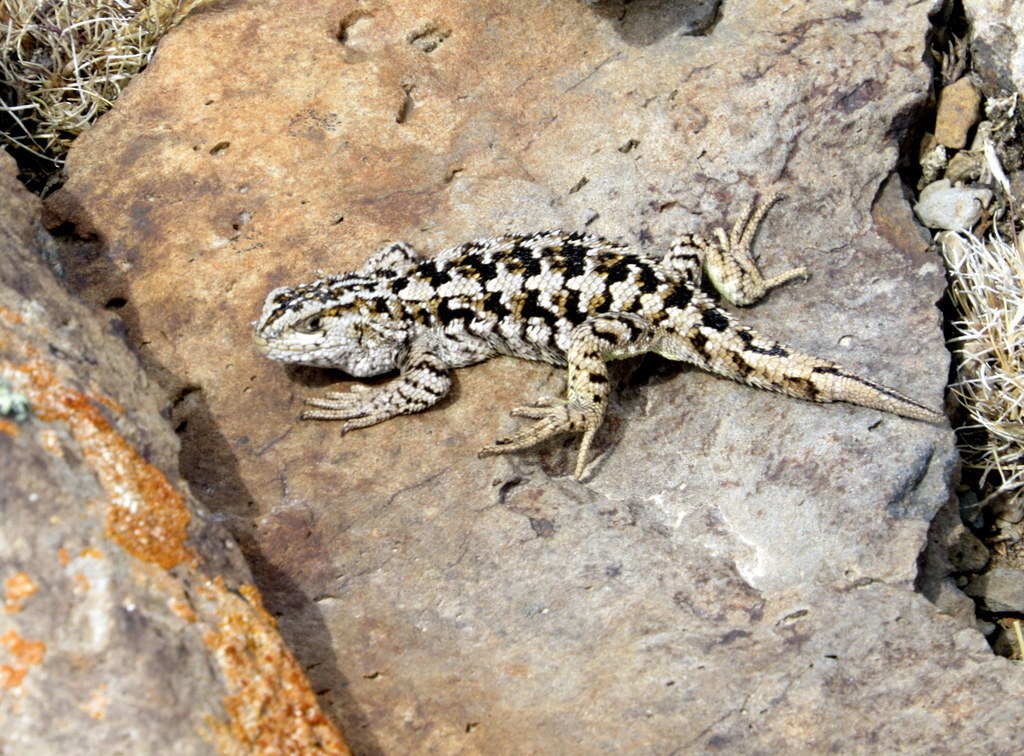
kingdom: Animalia
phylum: Chordata
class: Squamata
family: Liolaemidae
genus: Liolaemus
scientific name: Liolaemus hatcheri
